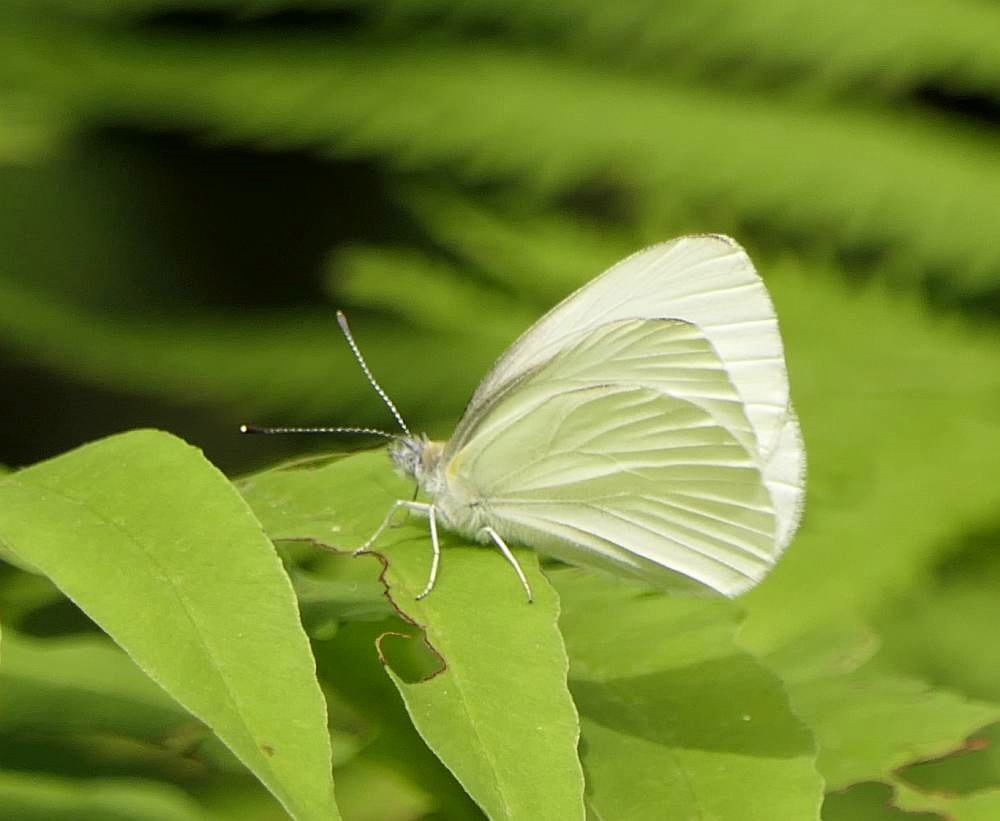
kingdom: Animalia
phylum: Arthropoda
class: Insecta
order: Lepidoptera
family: Pieridae
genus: Pieris
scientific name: Pieris oleracea
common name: Mustard white
